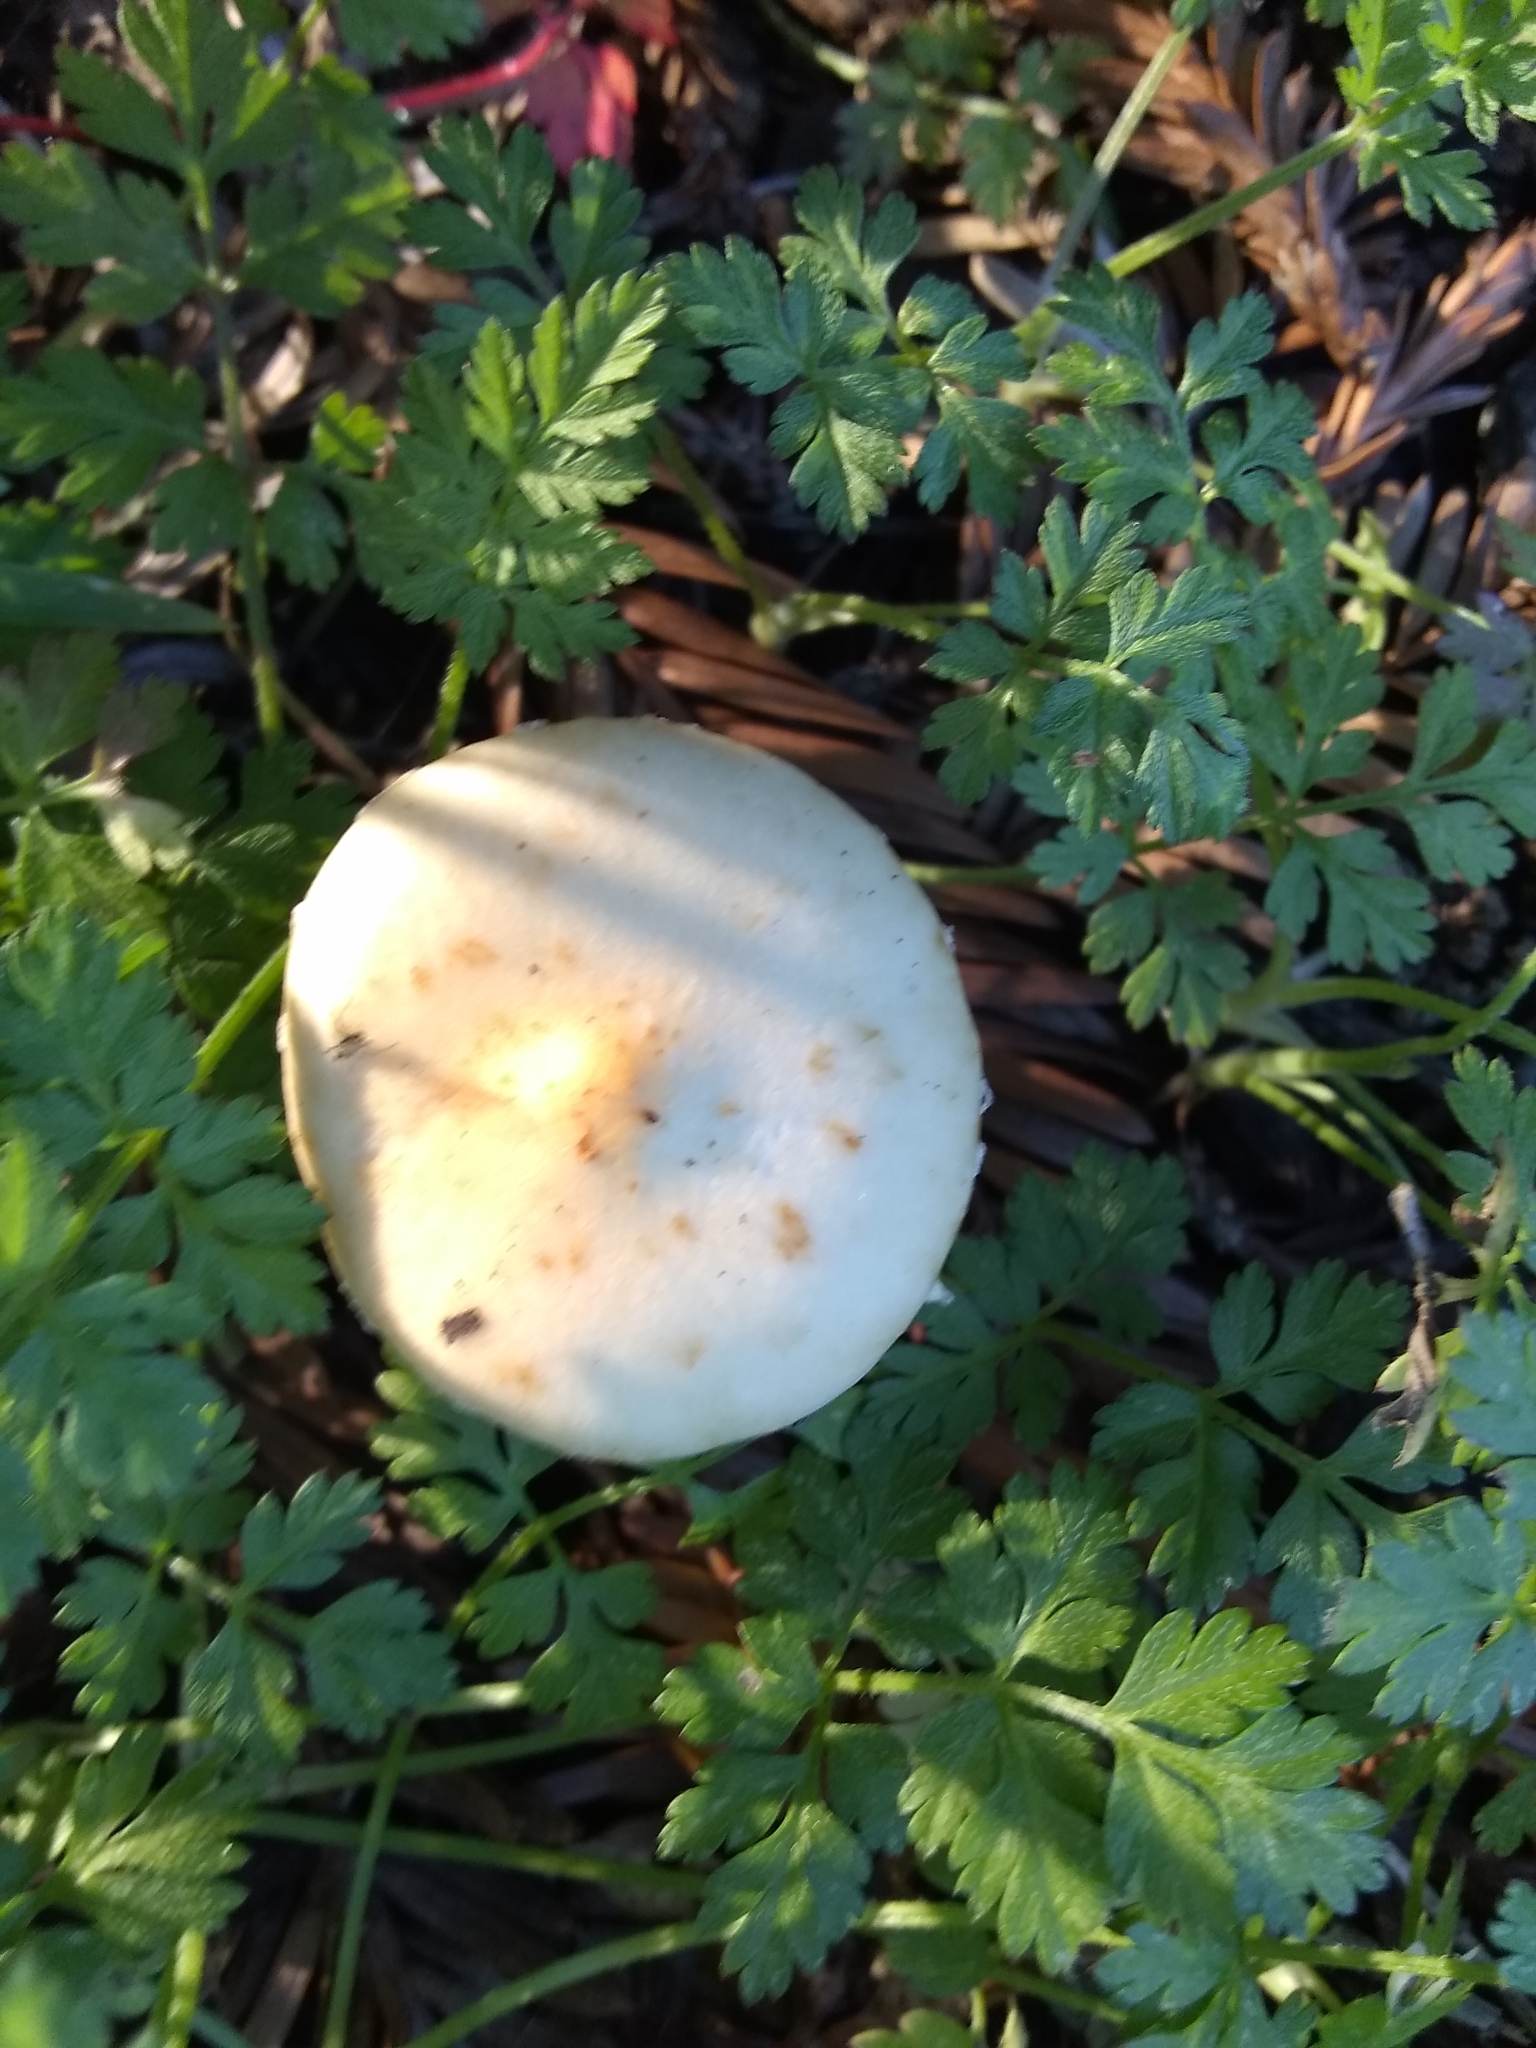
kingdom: Fungi
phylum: Basidiomycota
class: Agaricomycetes
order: Agaricales
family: Strophariaceae
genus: Leratiomyces
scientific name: Leratiomyces percevalii
